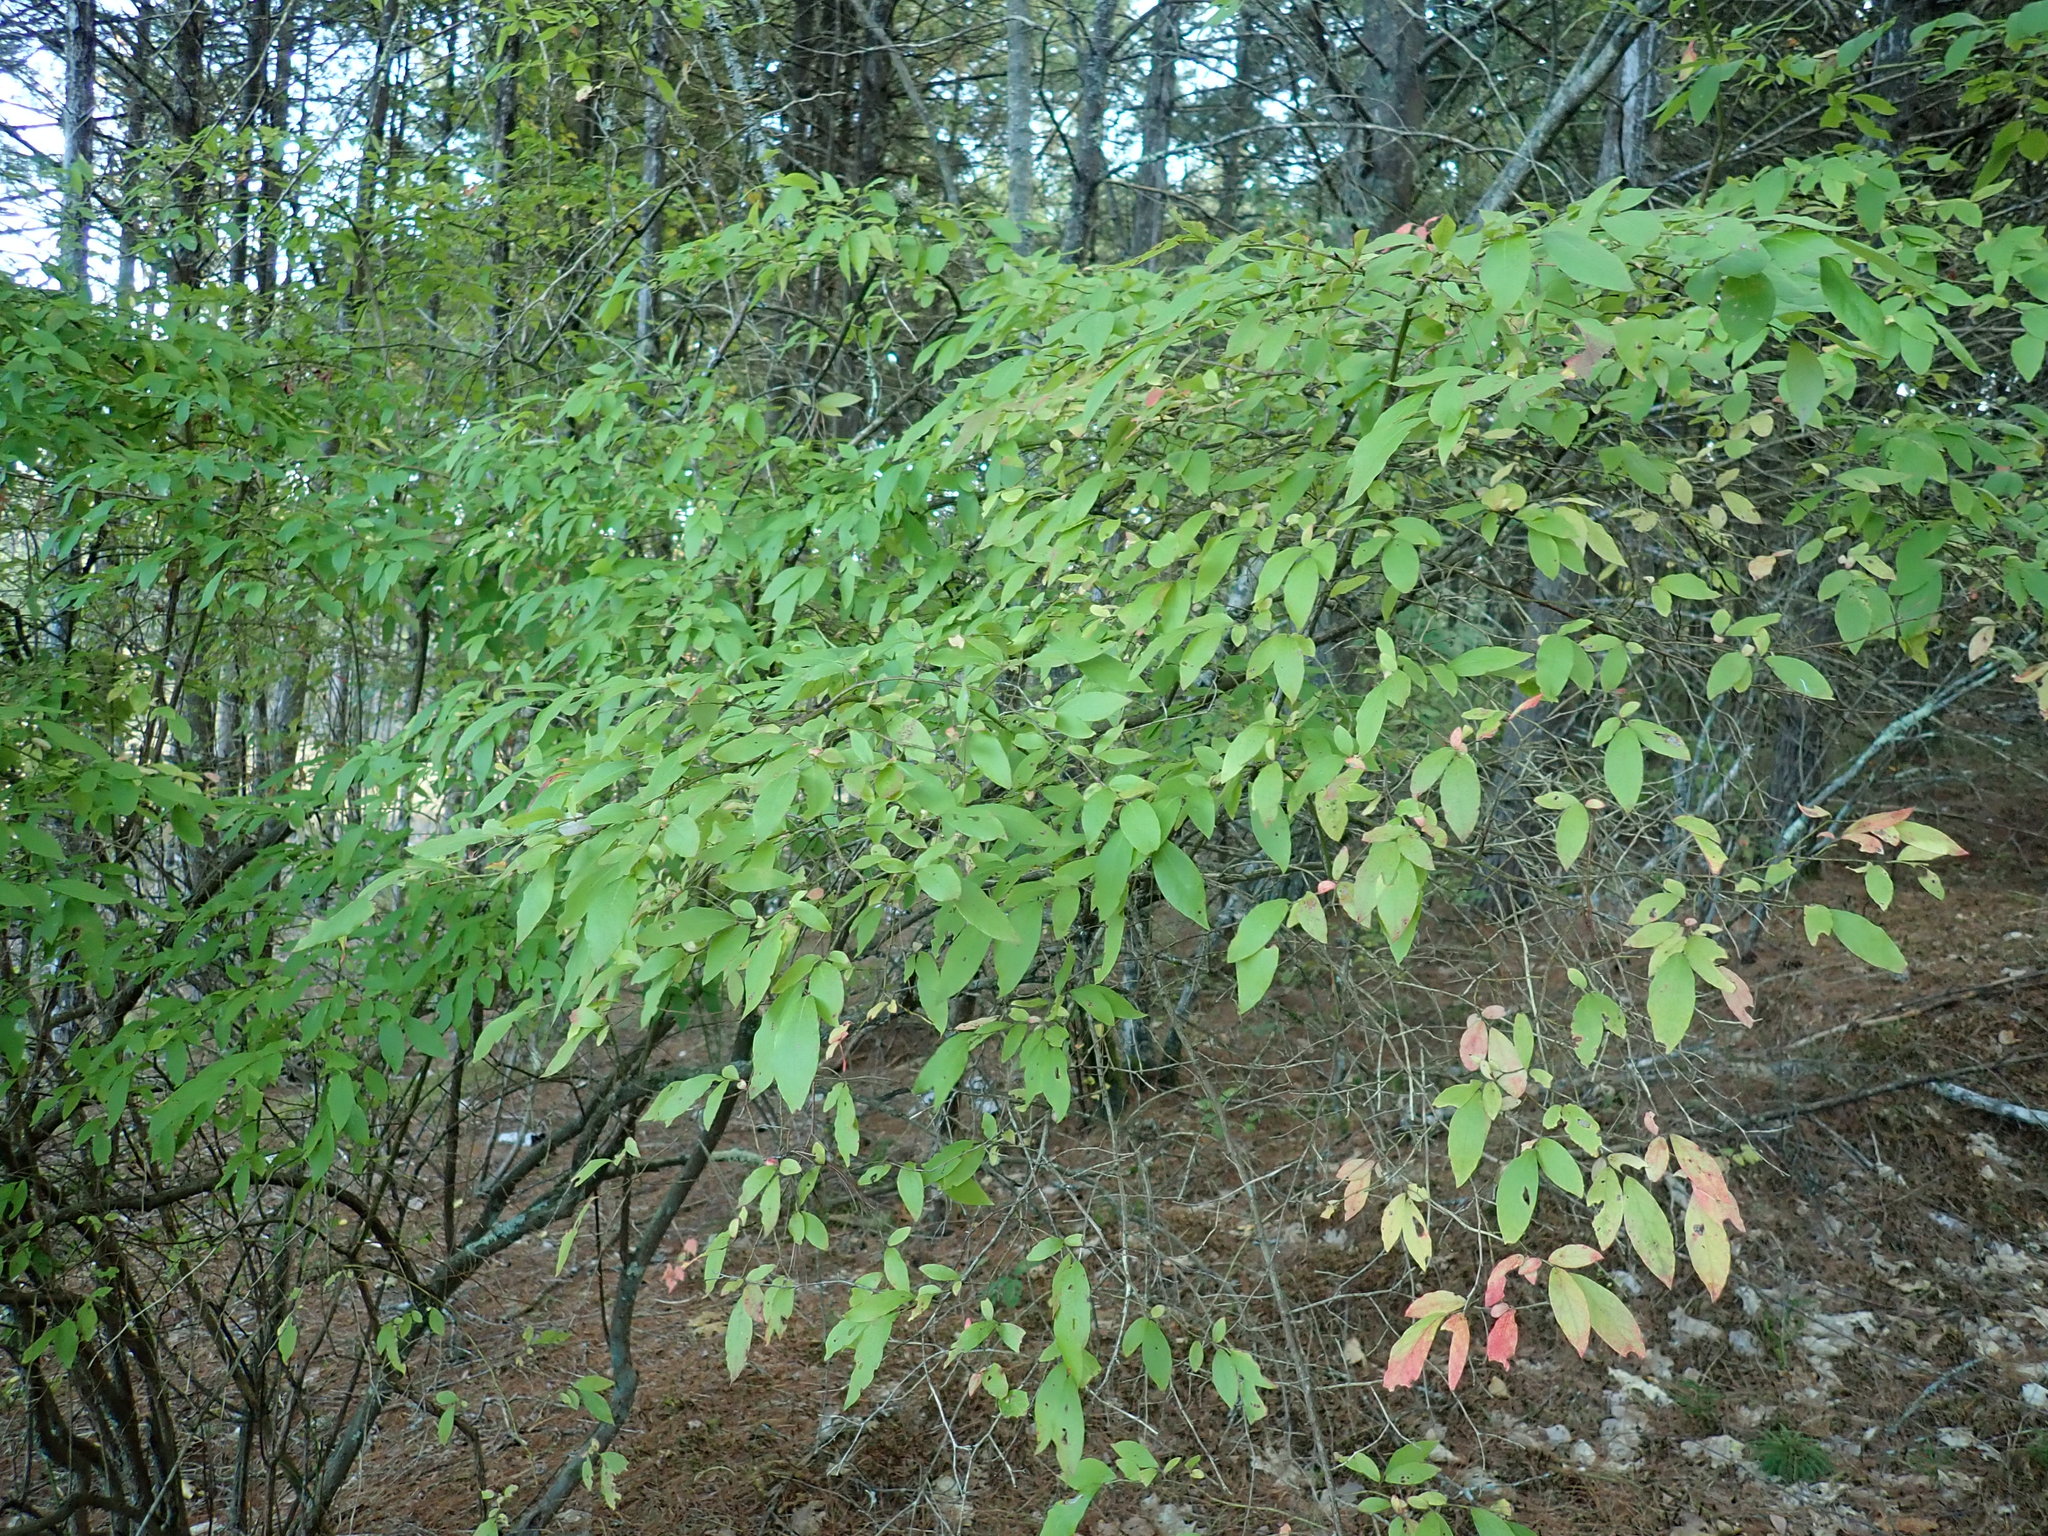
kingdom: Plantae
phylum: Tracheophyta
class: Magnoliopsida
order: Ericales
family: Ericaceae
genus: Vaccinium
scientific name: Vaccinium corymbosum
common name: Blueberry
